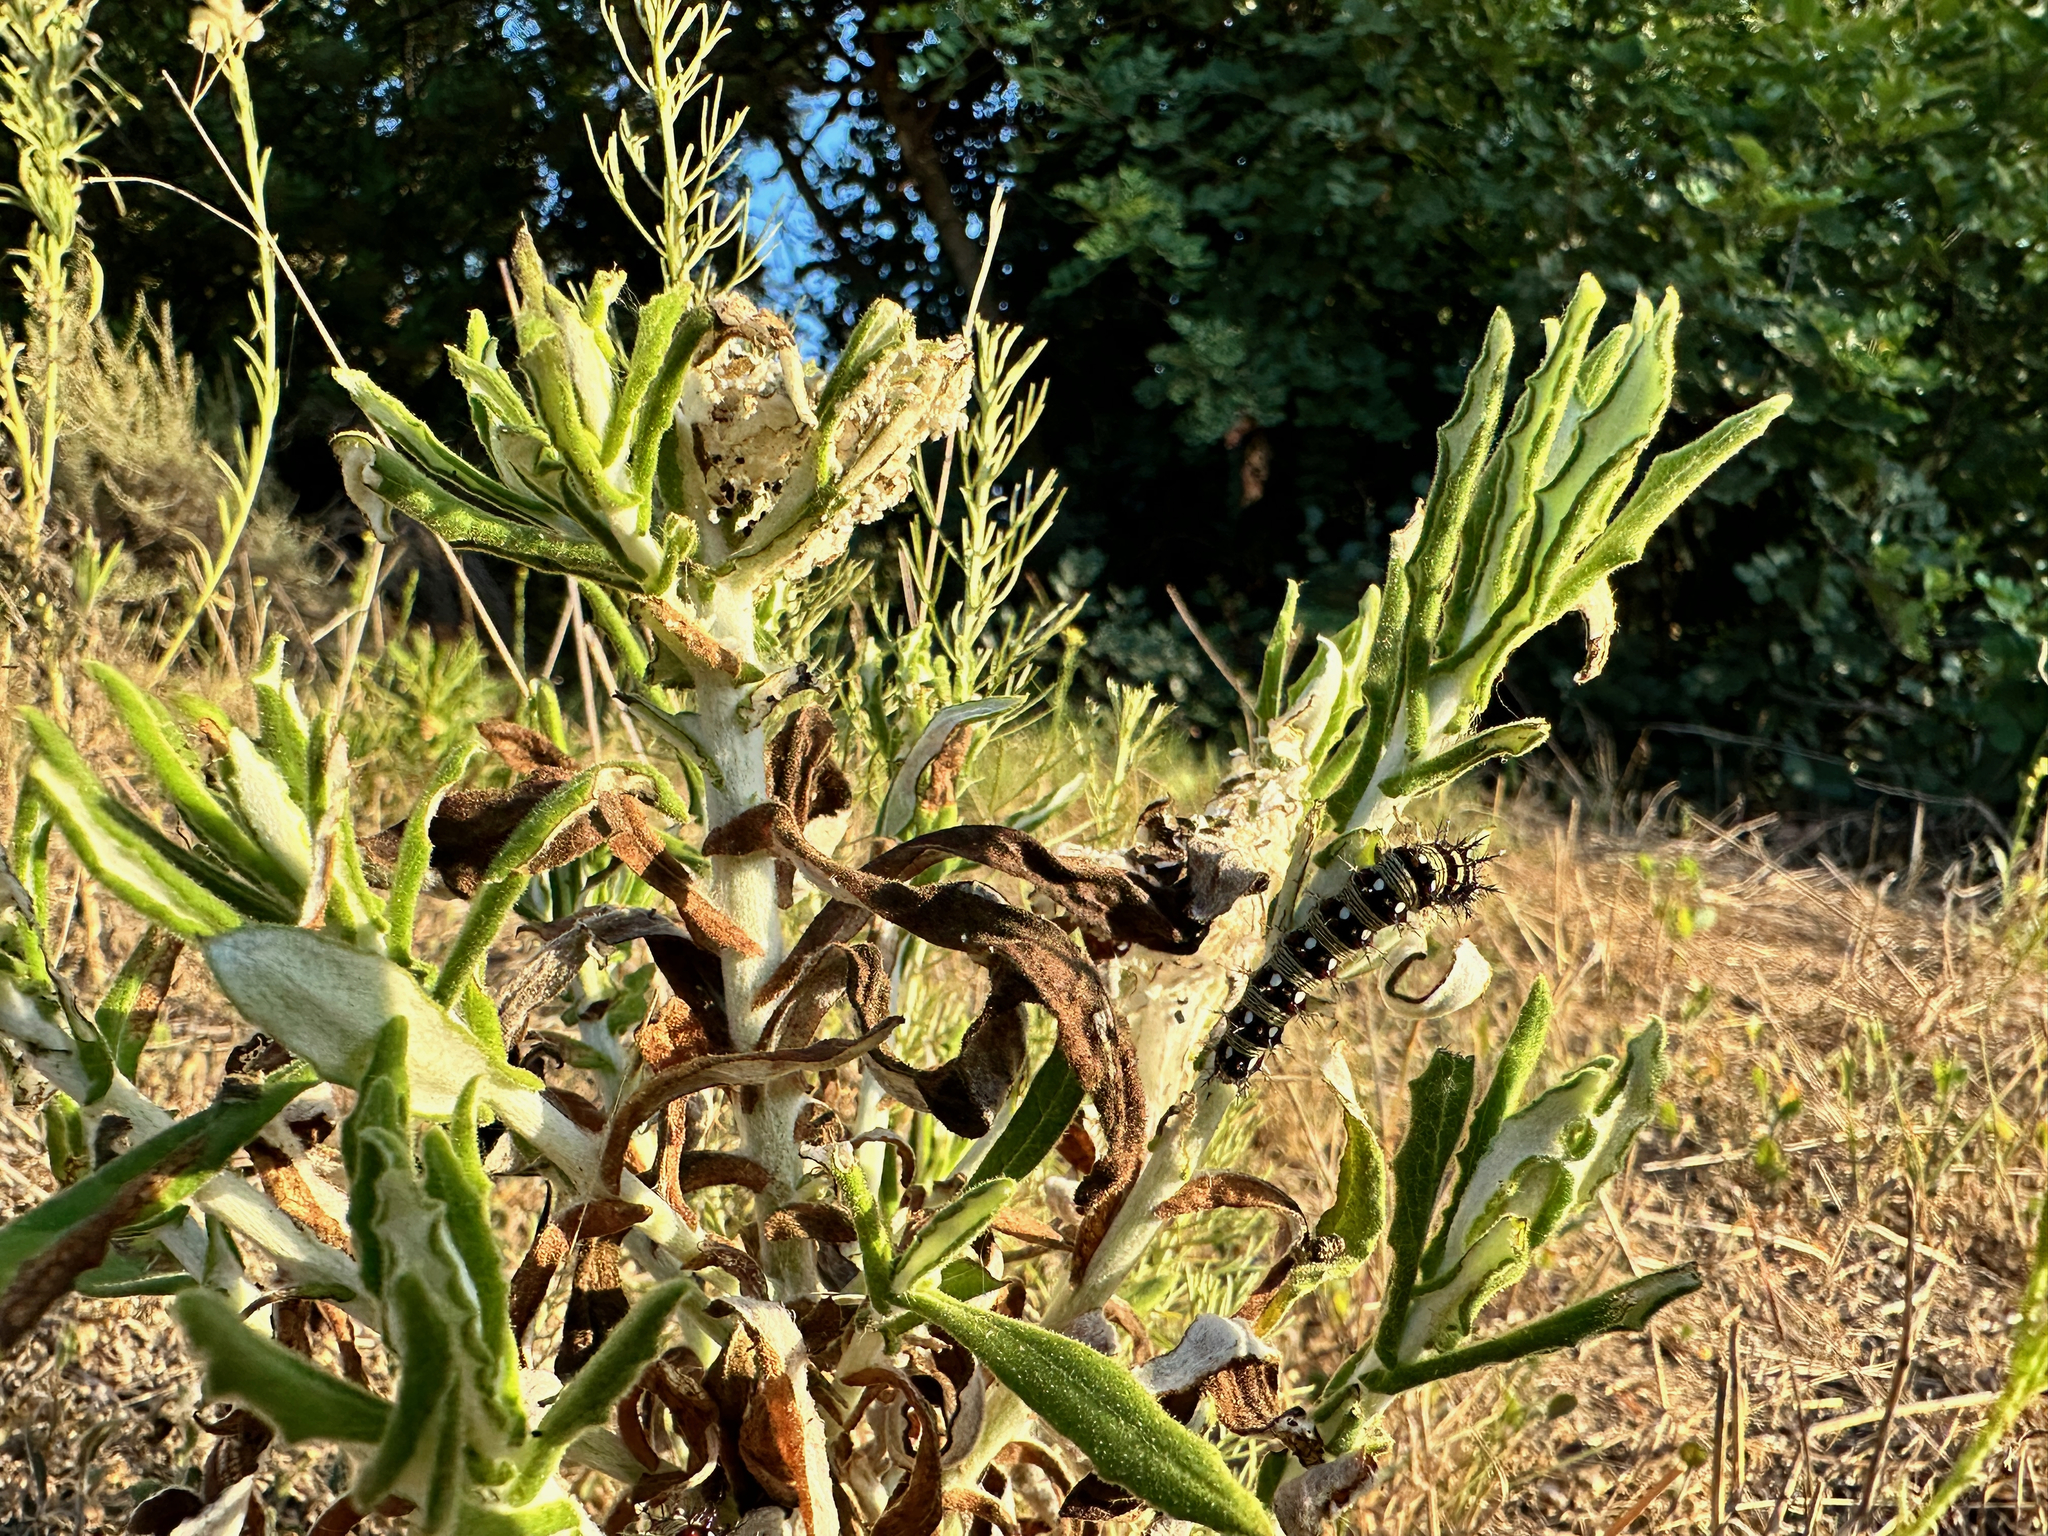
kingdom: Animalia
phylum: Arthropoda
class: Insecta
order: Lepidoptera
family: Nymphalidae
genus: Vanessa
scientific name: Vanessa virginiensis
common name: American lady
